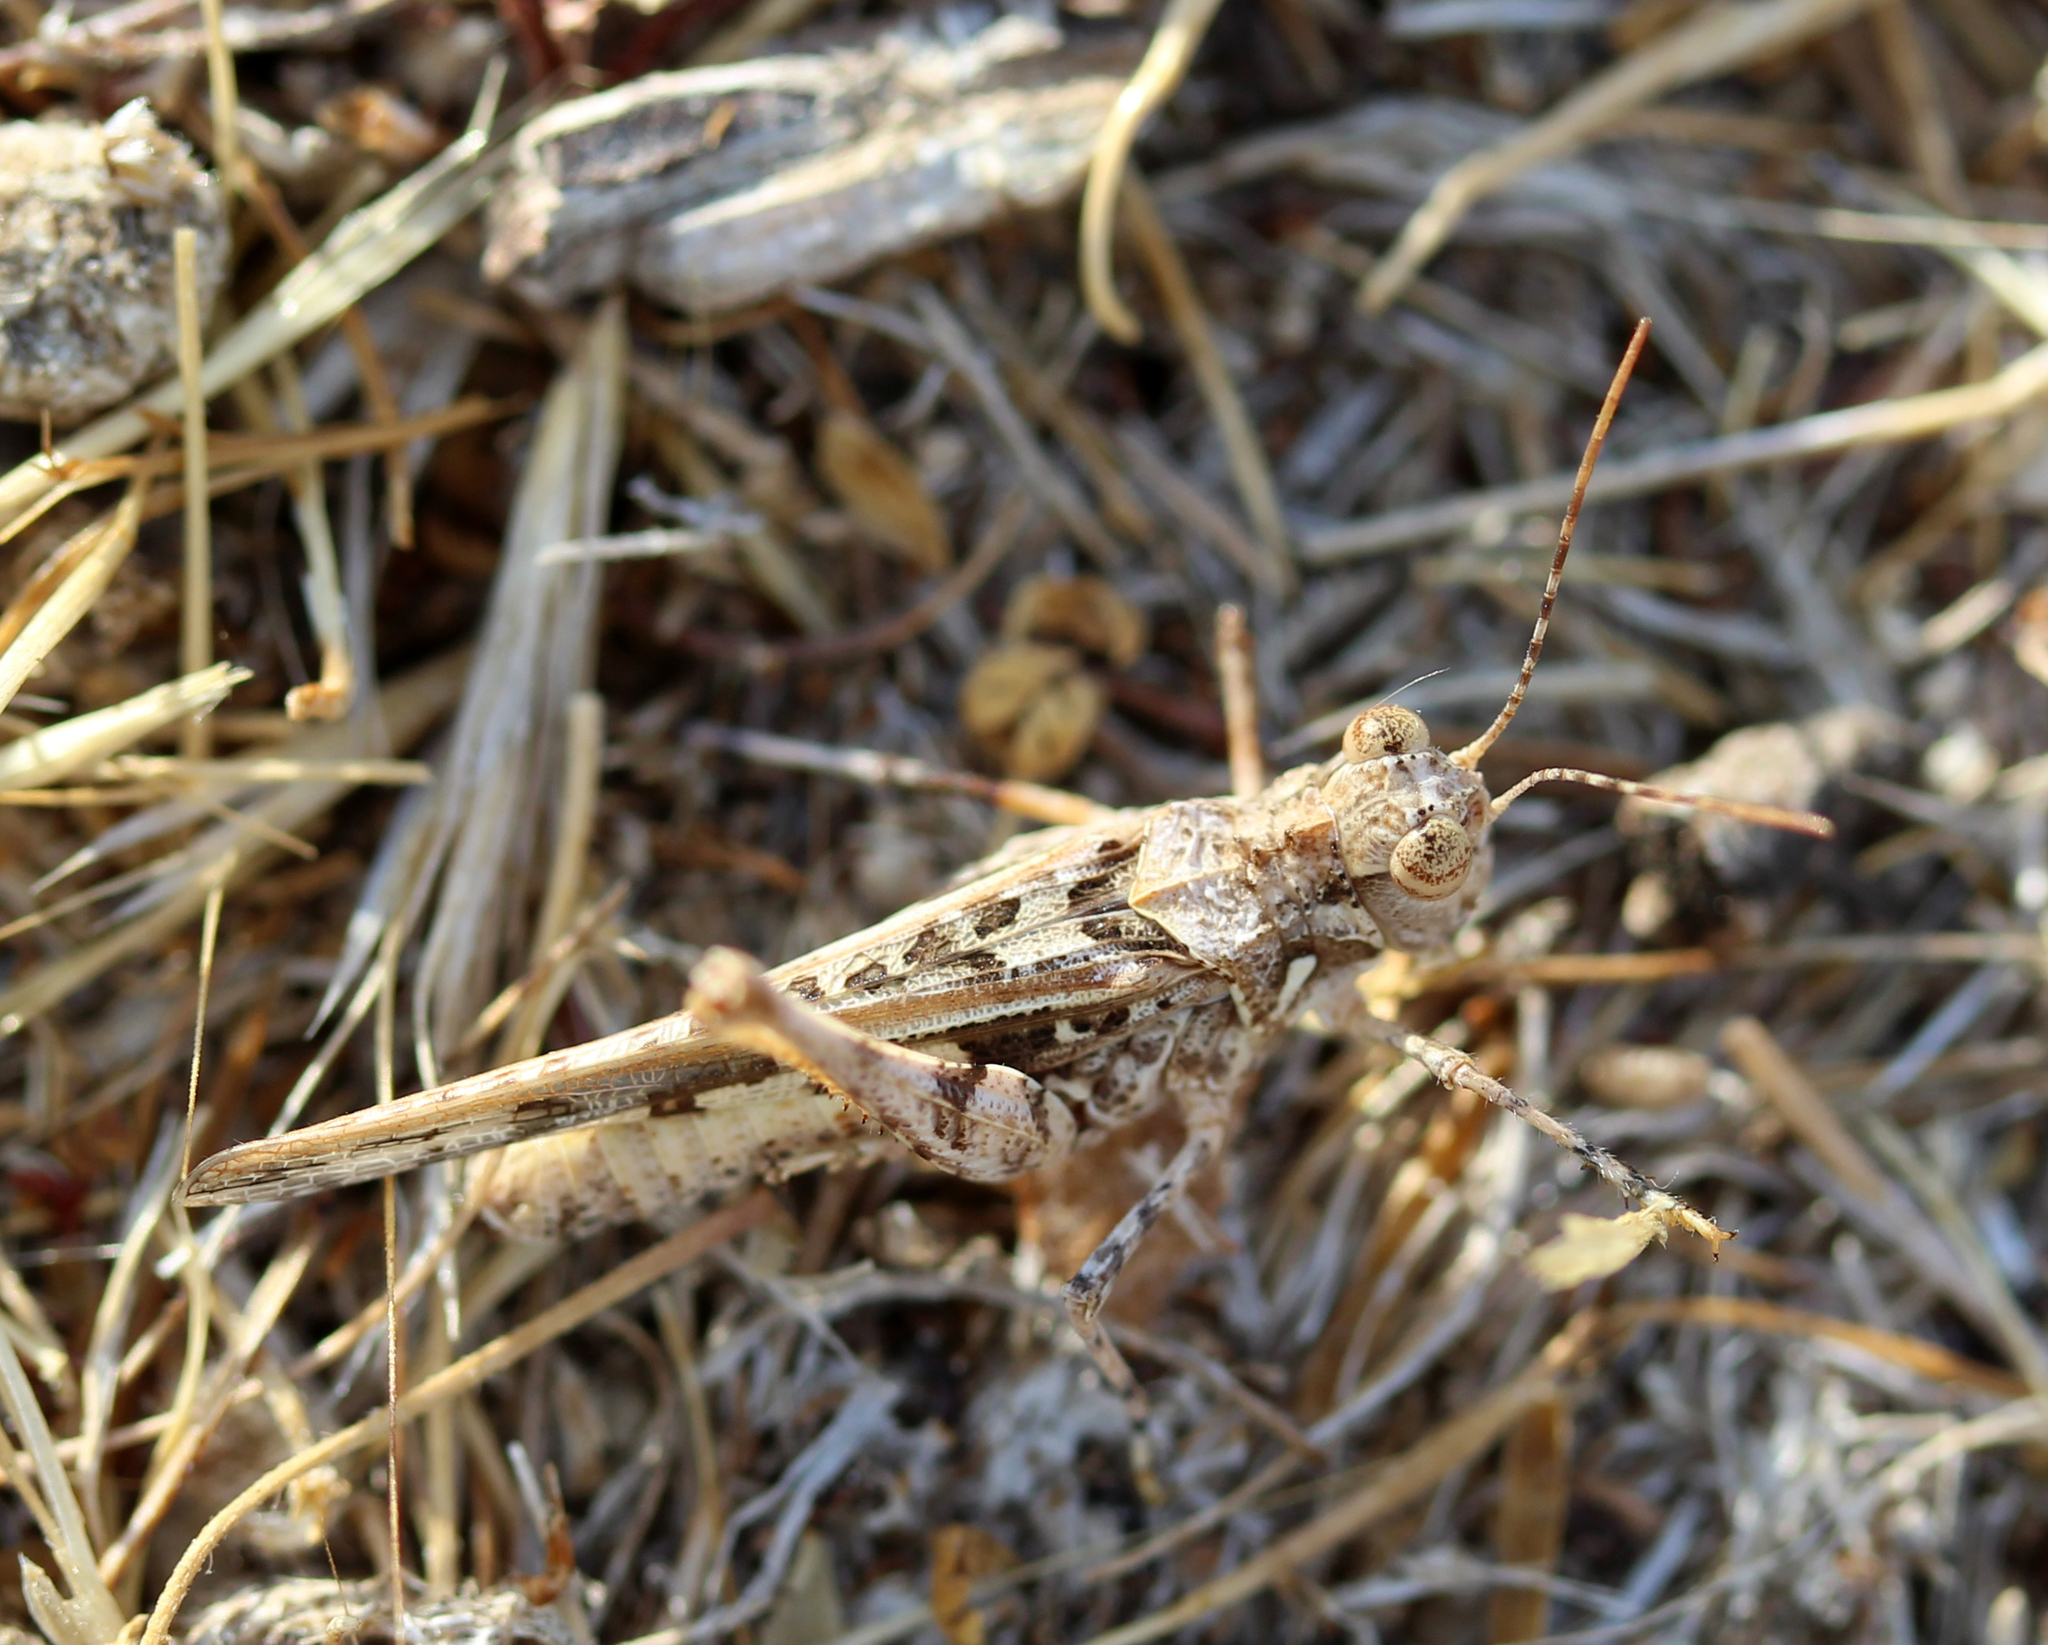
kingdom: Animalia
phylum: Arthropoda
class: Insecta
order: Orthoptera
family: Acrididae
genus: Derotmema
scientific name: Derotmema saussureanum
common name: Saussure's desert grasshopper
